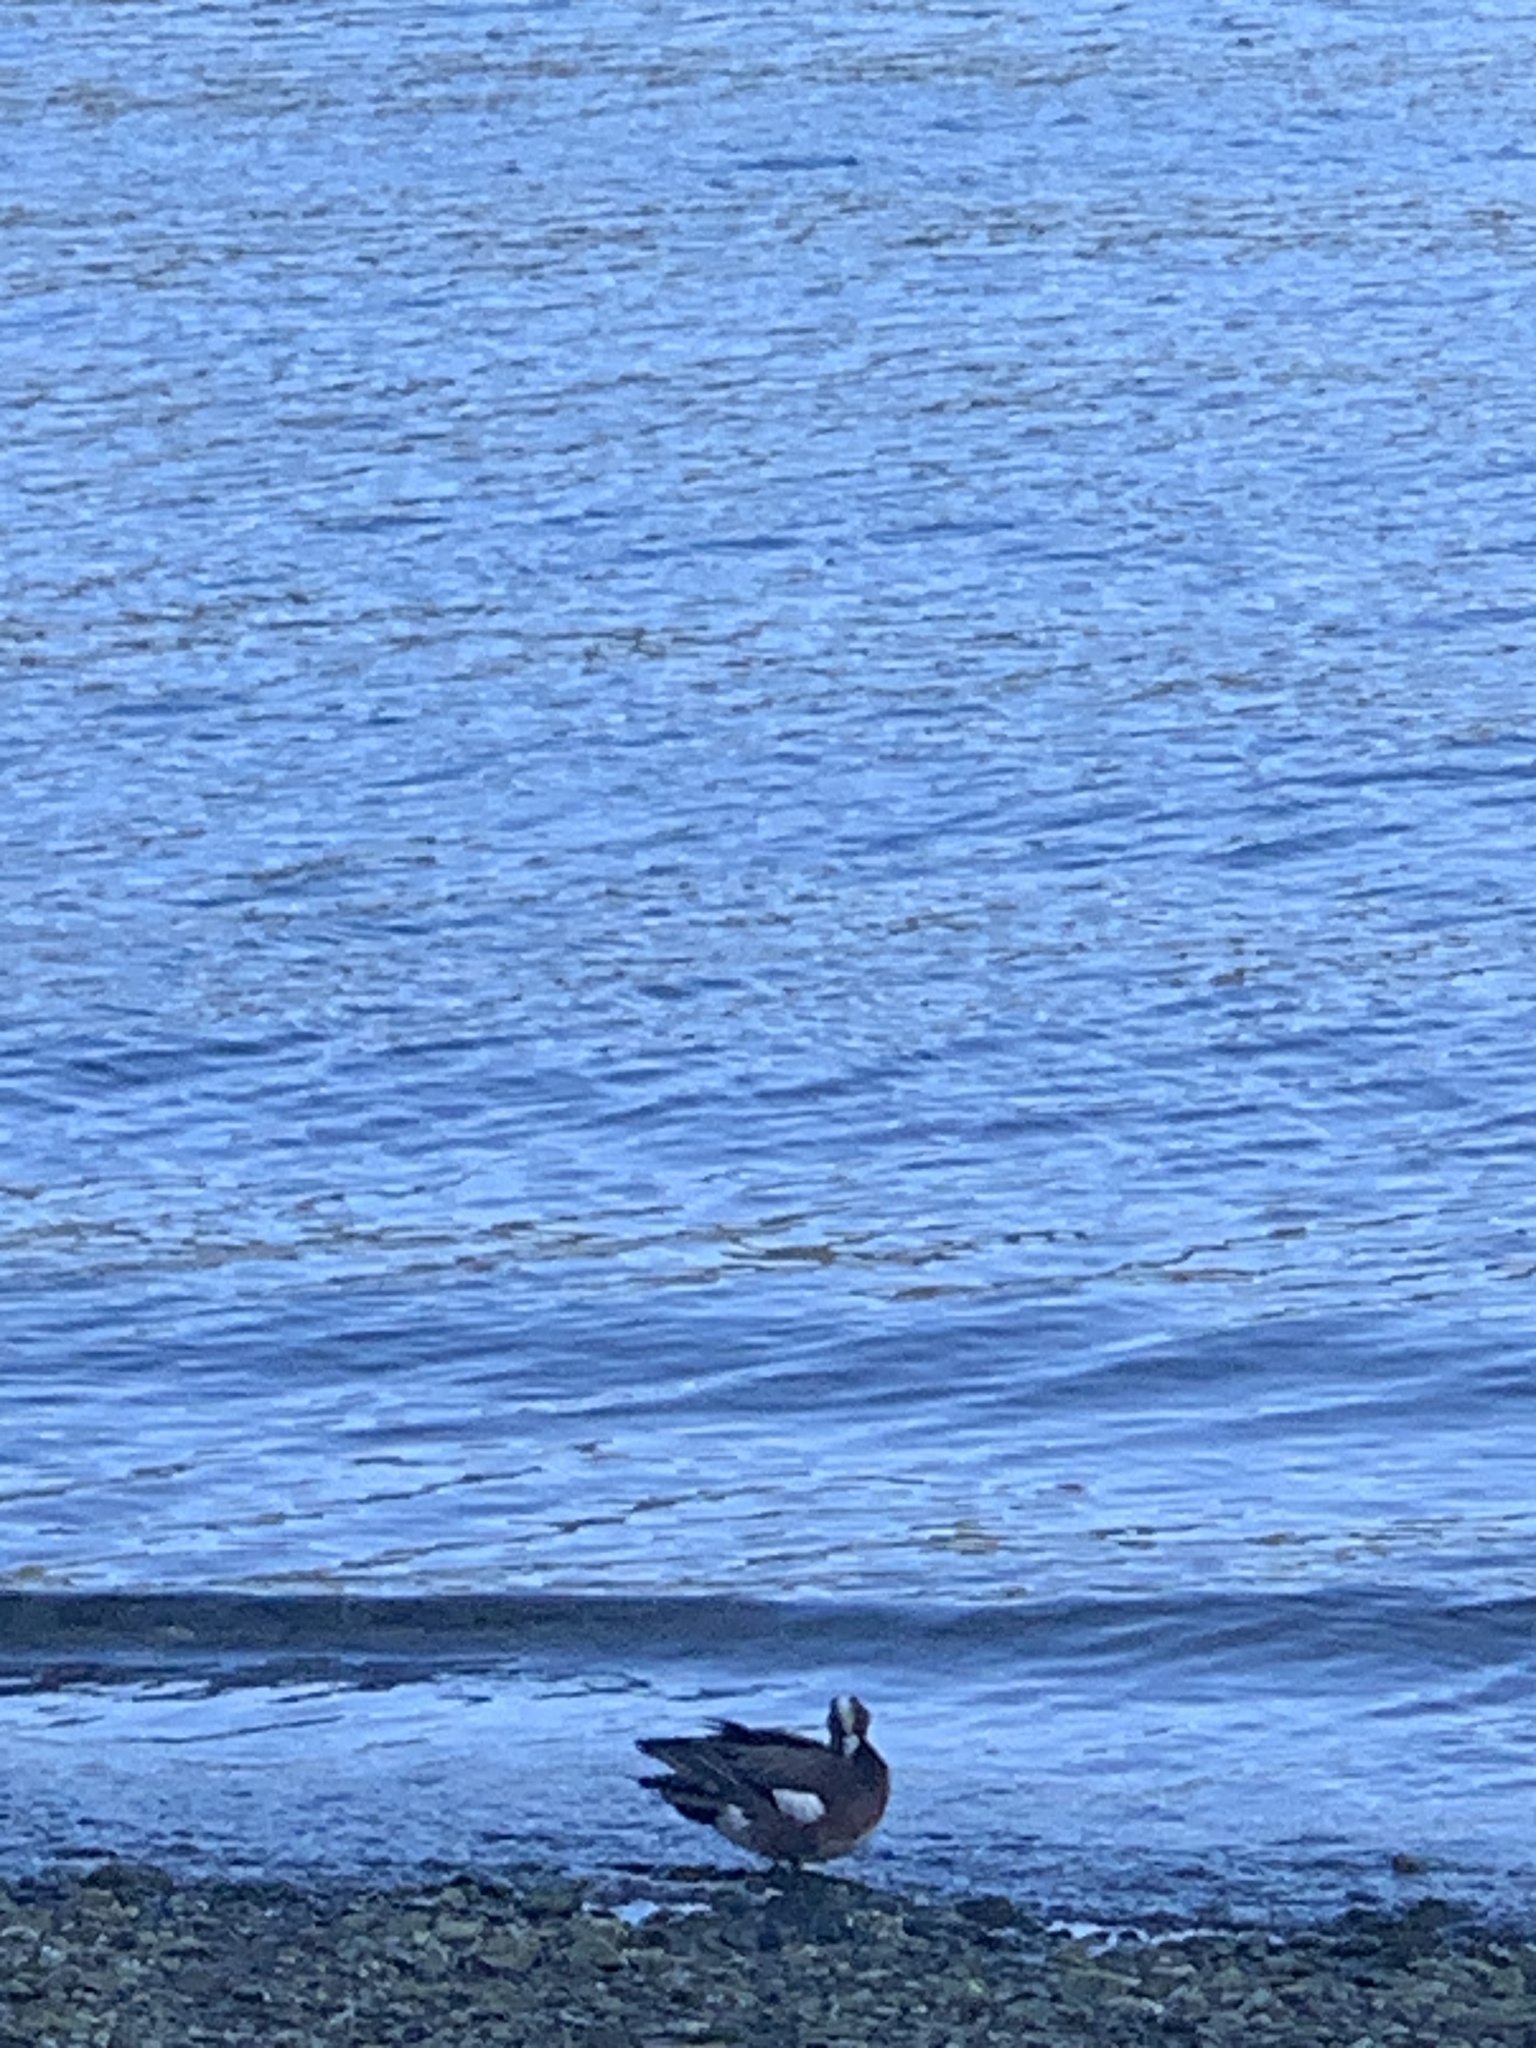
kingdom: Animalia
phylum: Chordata
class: Aves
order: Anseriformes
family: Anatidae
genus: Mareca
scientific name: Mareca americana
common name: American wigeon
